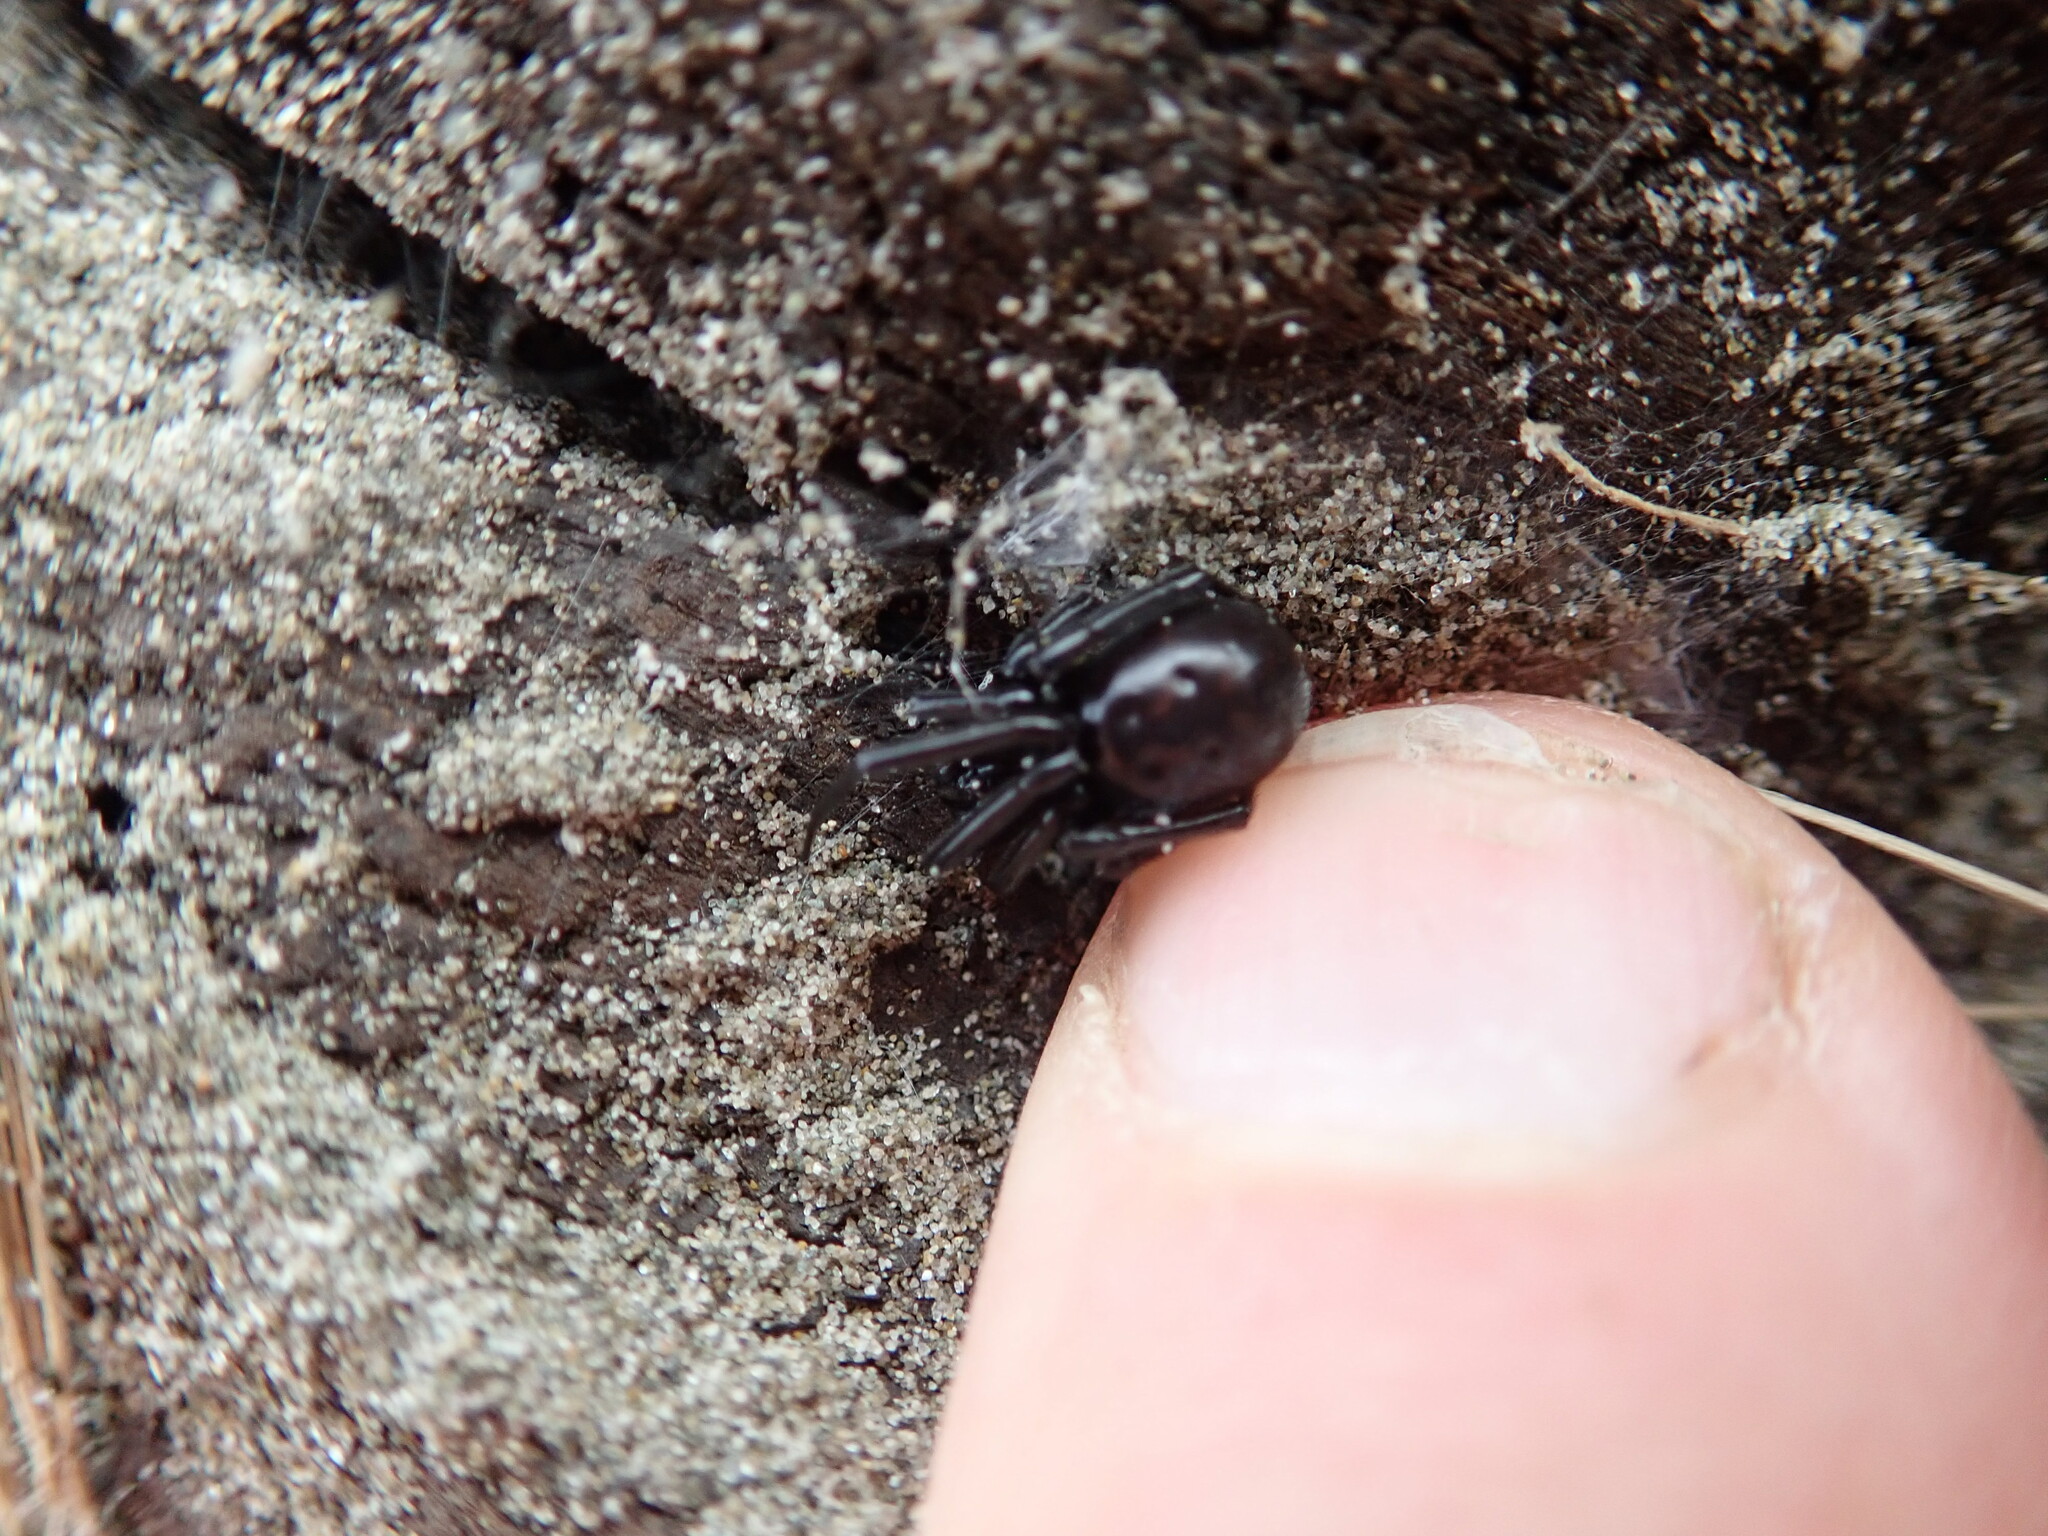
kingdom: Animalia
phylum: Arthropoda
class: Arachnida
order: Araneae
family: Theridiidae
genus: Steatoda
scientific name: Steatoda capensis
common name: Cobweb weaver
